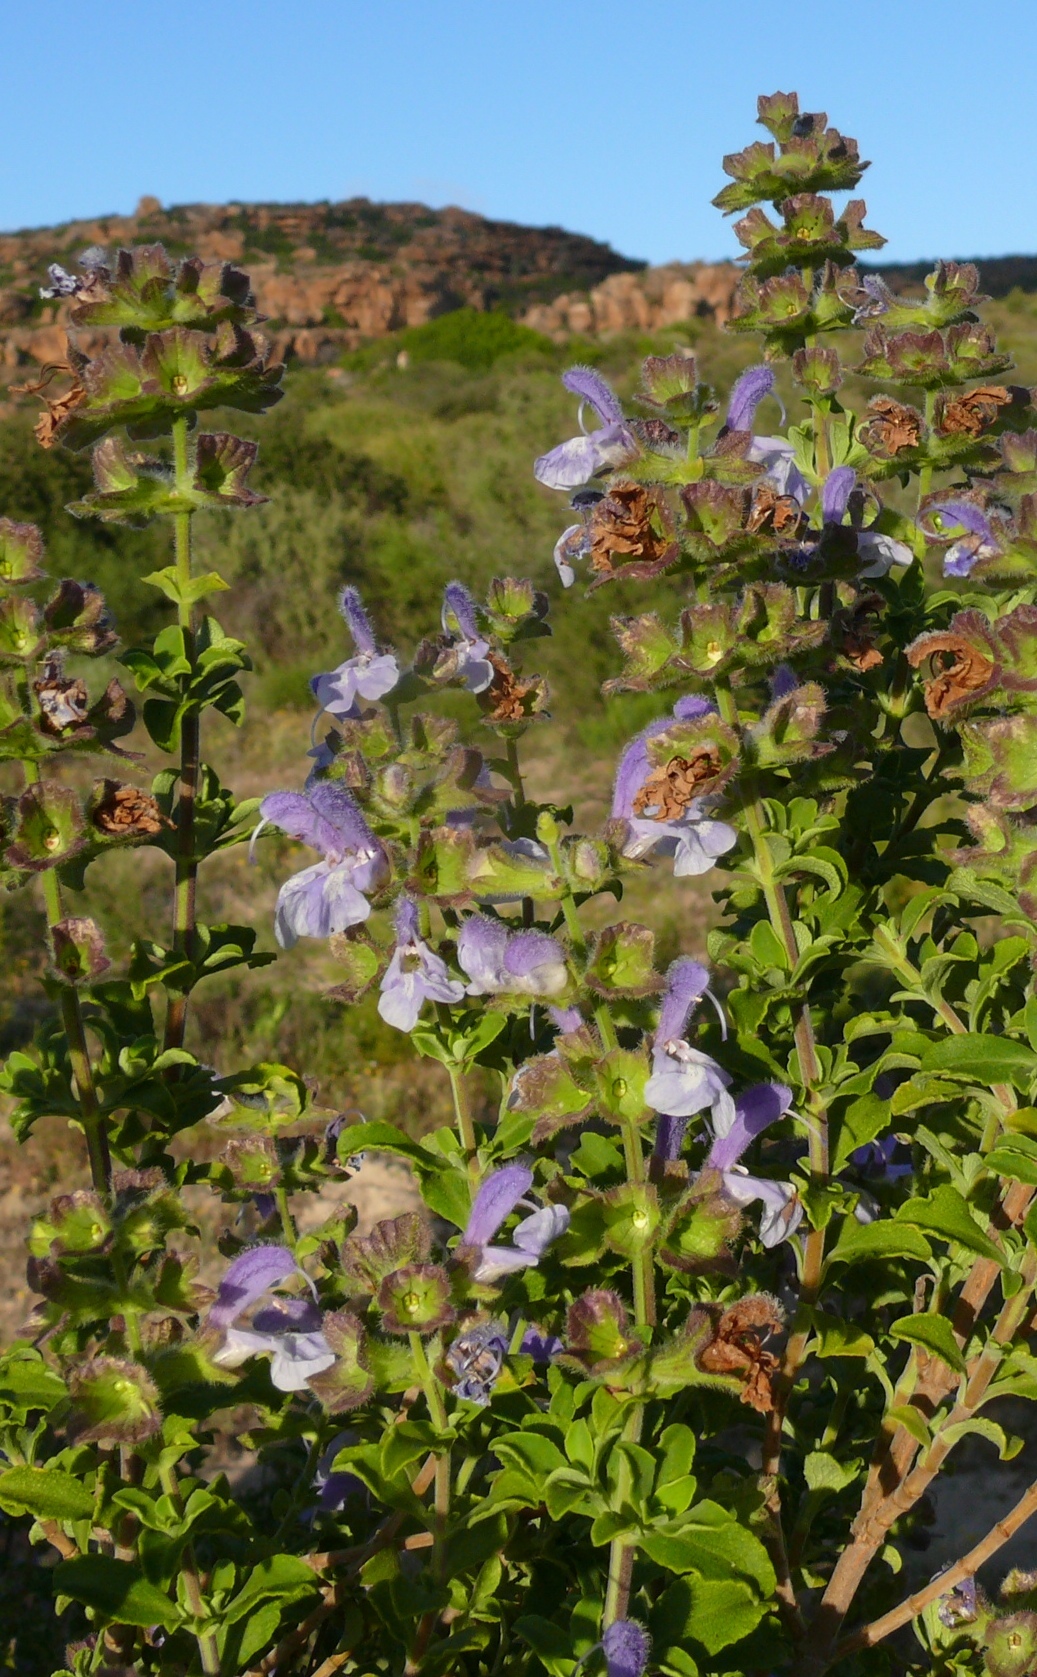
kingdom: Plantae
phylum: Tracheophyta
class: Magnoliopsida
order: Lamiales
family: Lamiaceae
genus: Salvia
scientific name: Salvia africana
